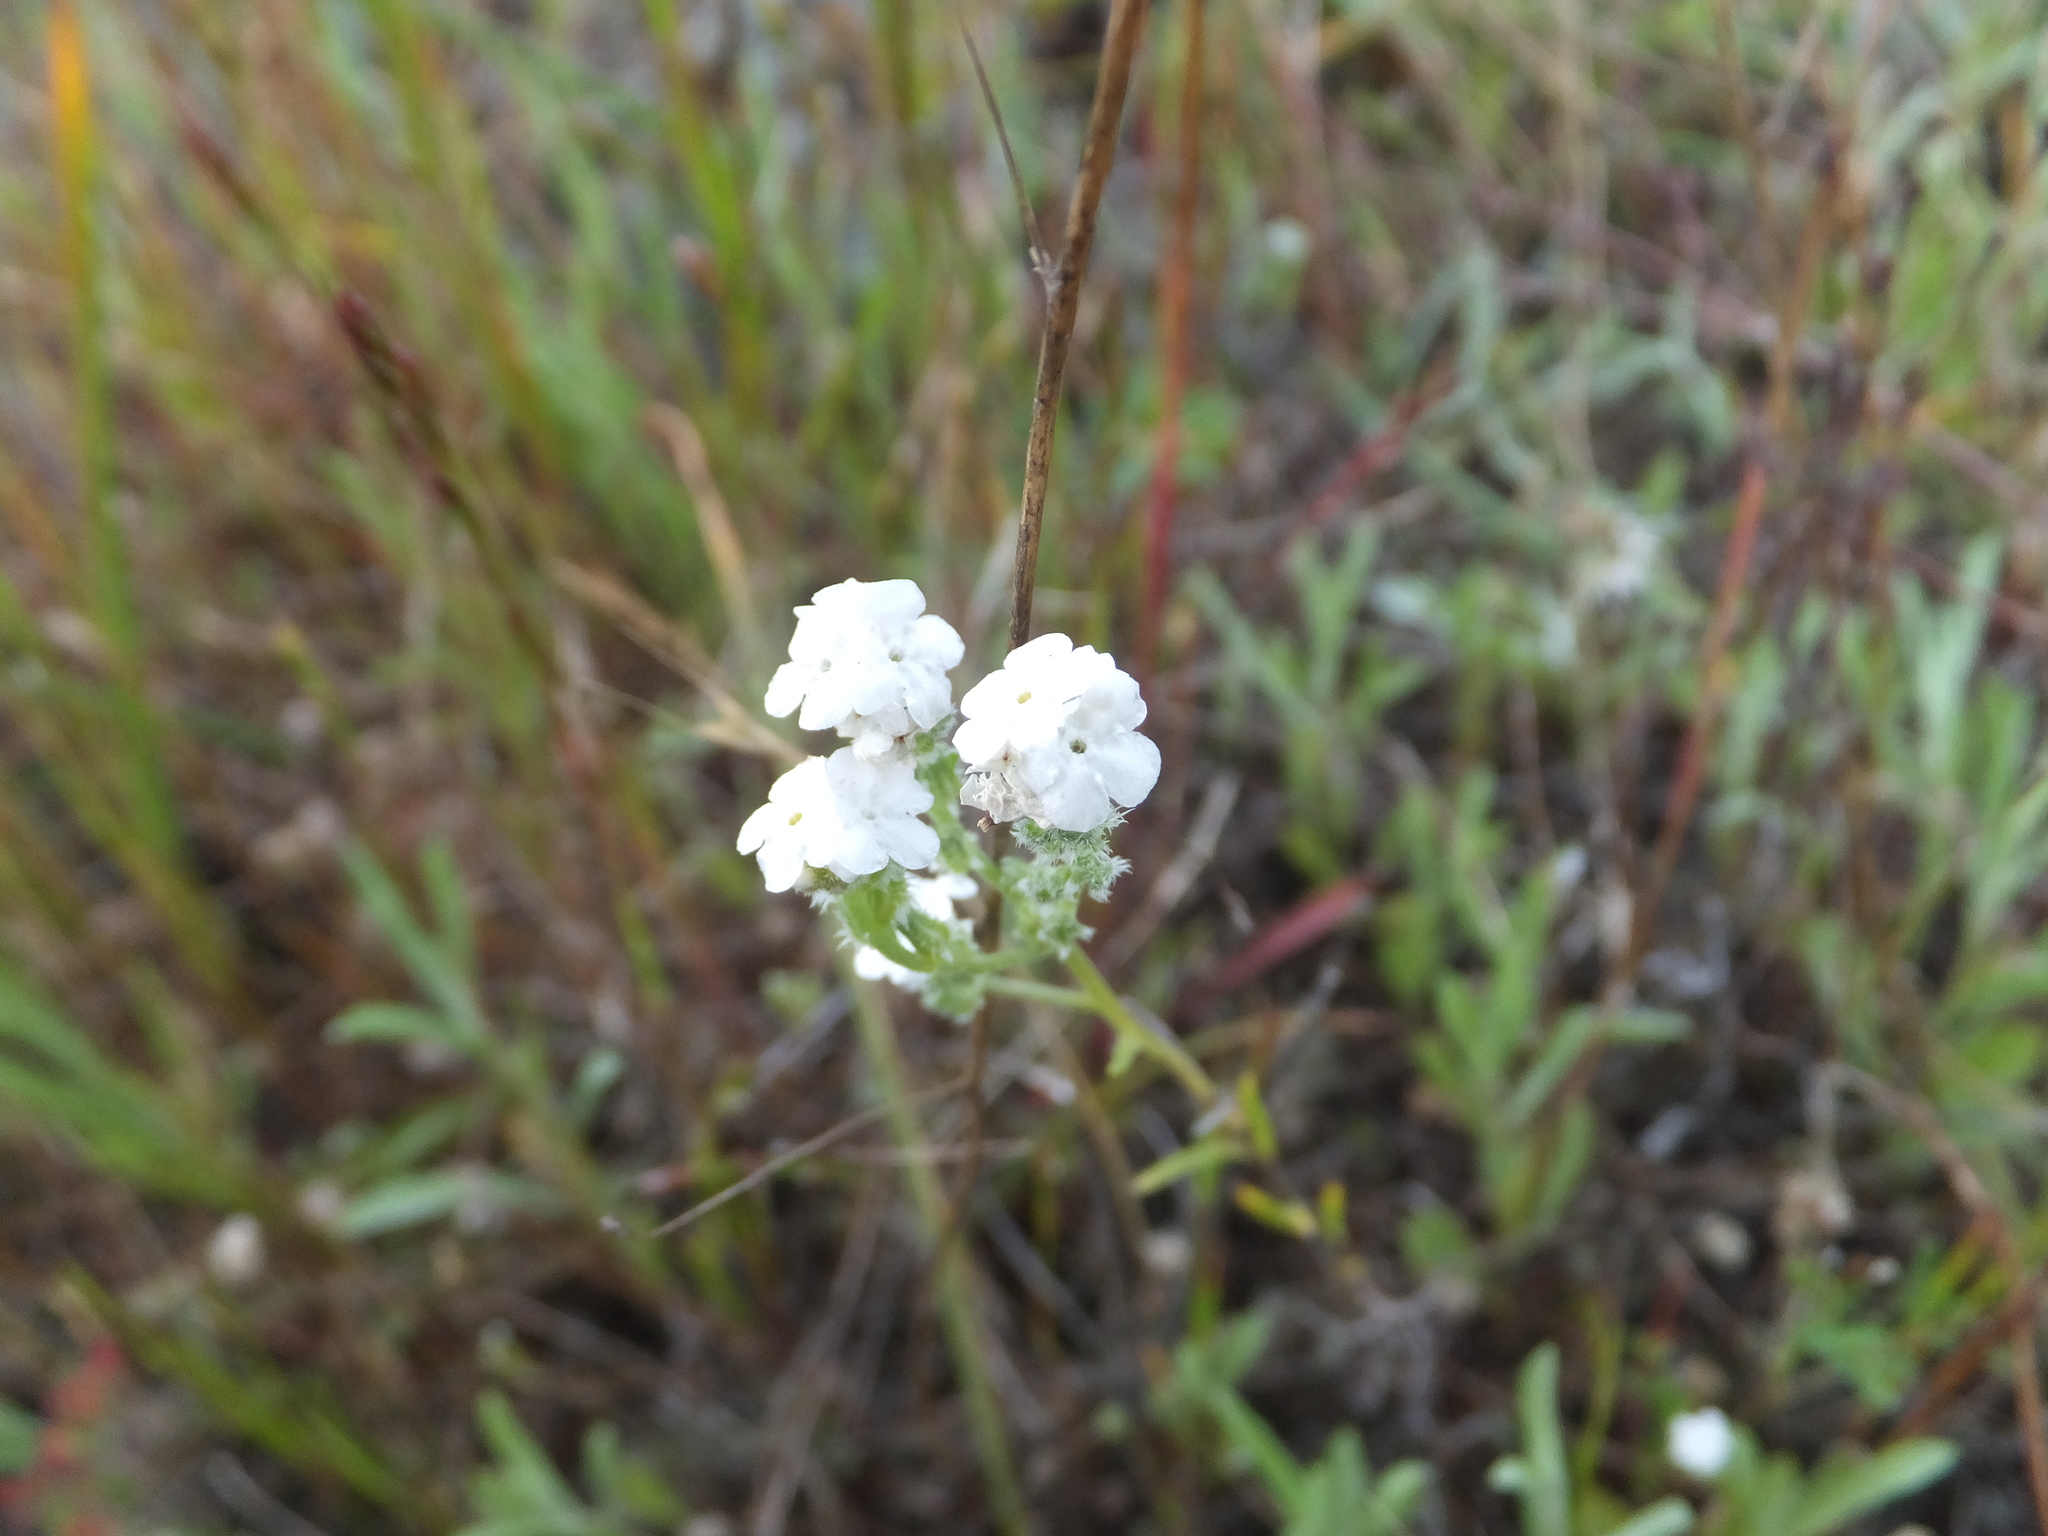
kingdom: Plantae
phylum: Tracheophyta
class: Magnoliopsida
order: Boraginales
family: Boraginaceae
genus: Cryptantha
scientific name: Cryptantha flaccida
